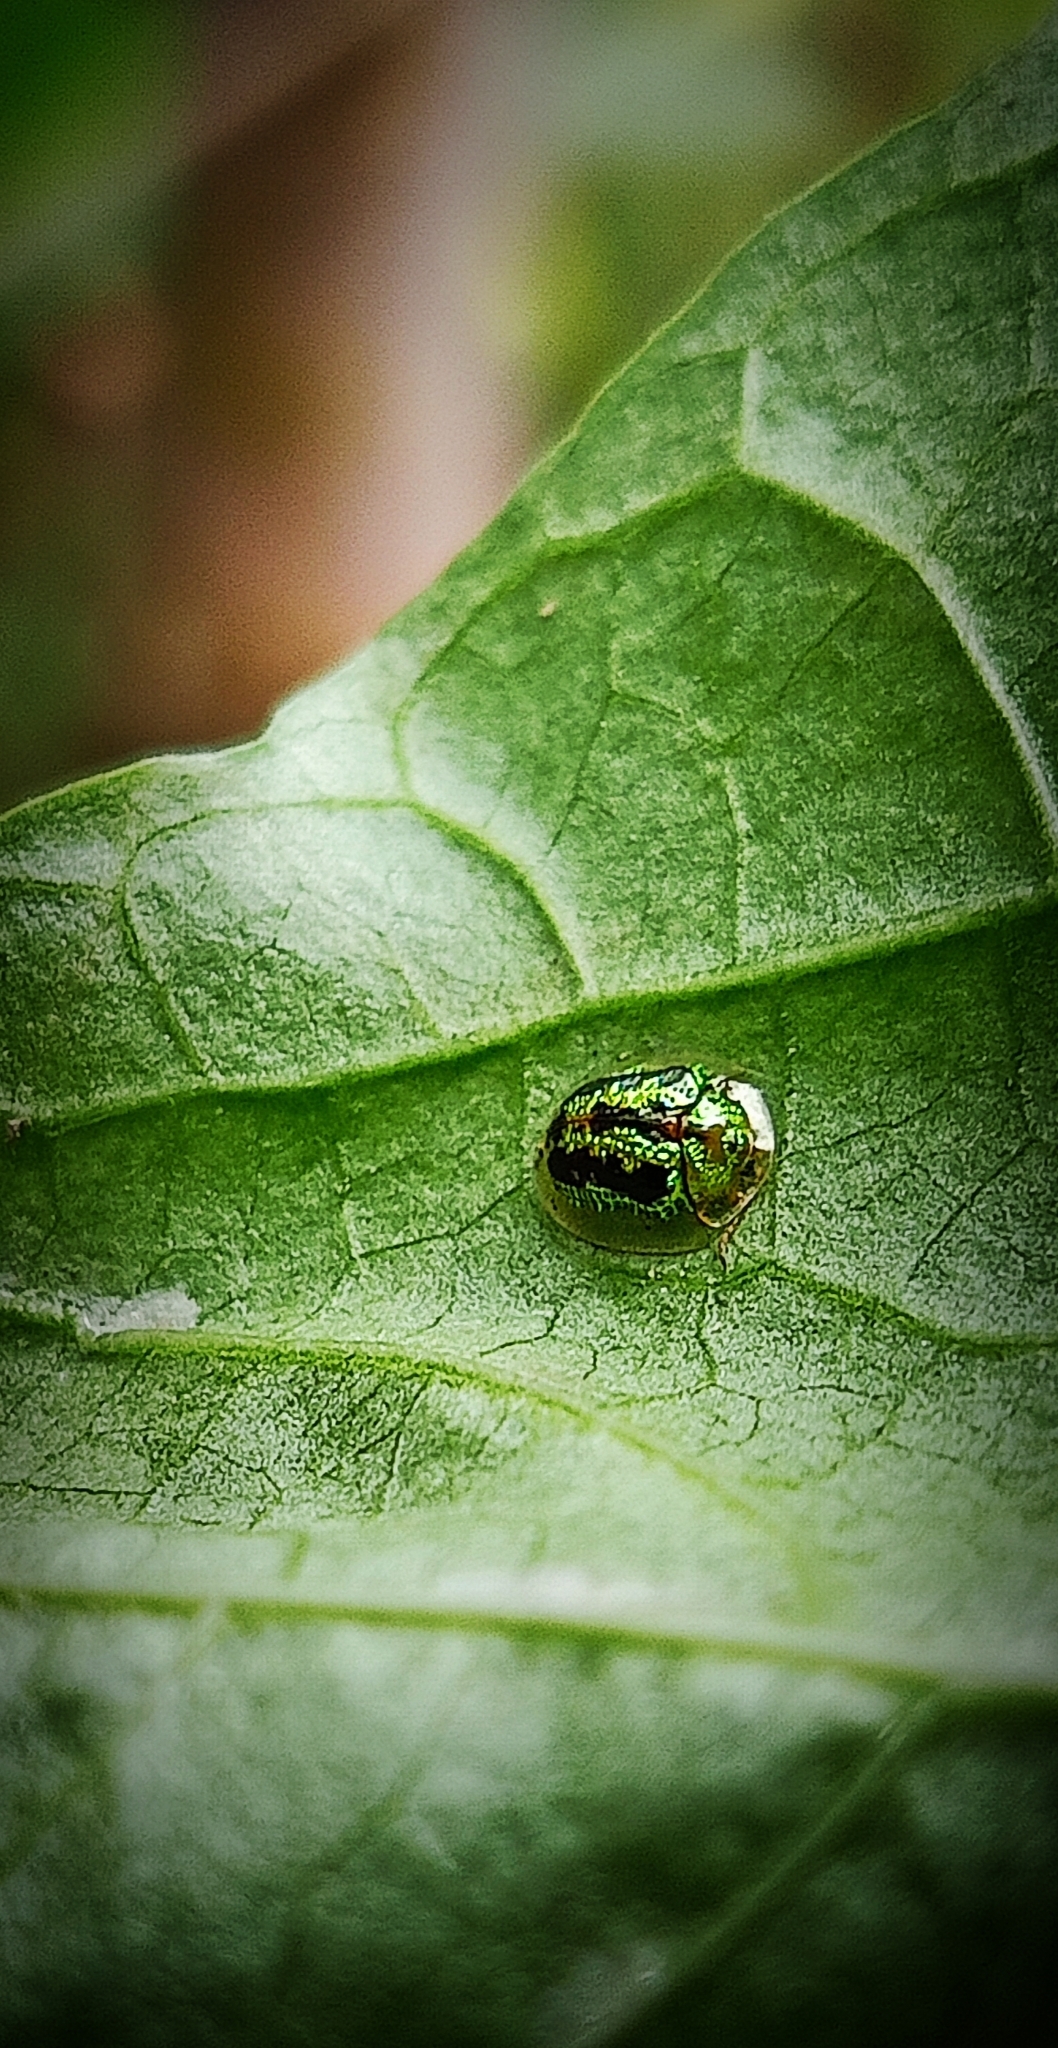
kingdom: Animalia
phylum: Arthropoda
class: Insecta
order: Coleoptera
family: Chrysomelidae
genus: Cassida
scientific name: Cassida circumdata
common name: Tortoise beetle
